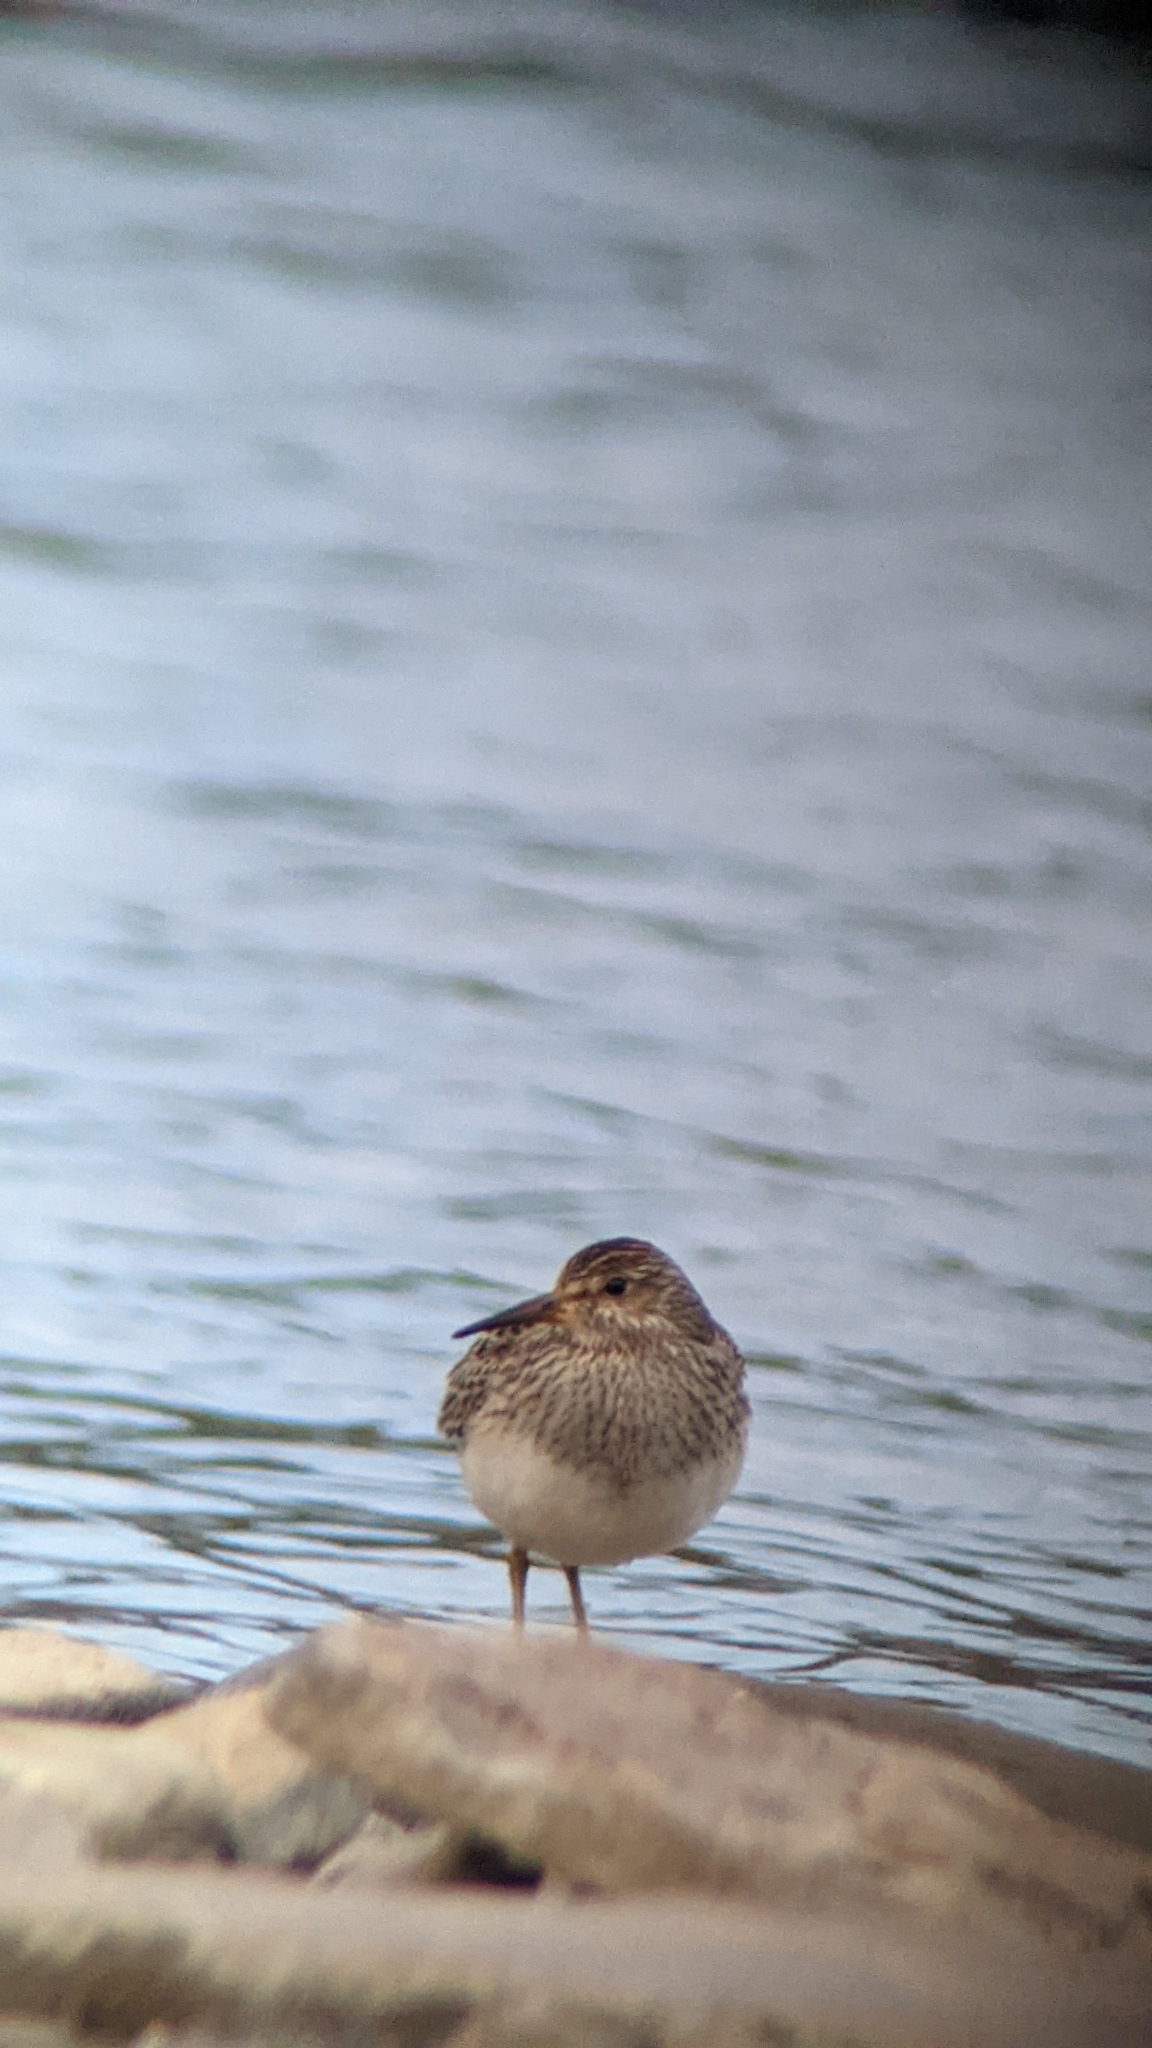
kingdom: Animalia
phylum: Chordata
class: Aves
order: Charadriiformes
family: Scolopacidae
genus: Calidris
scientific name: Calidris melanotos
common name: Pectoral sandpiper
